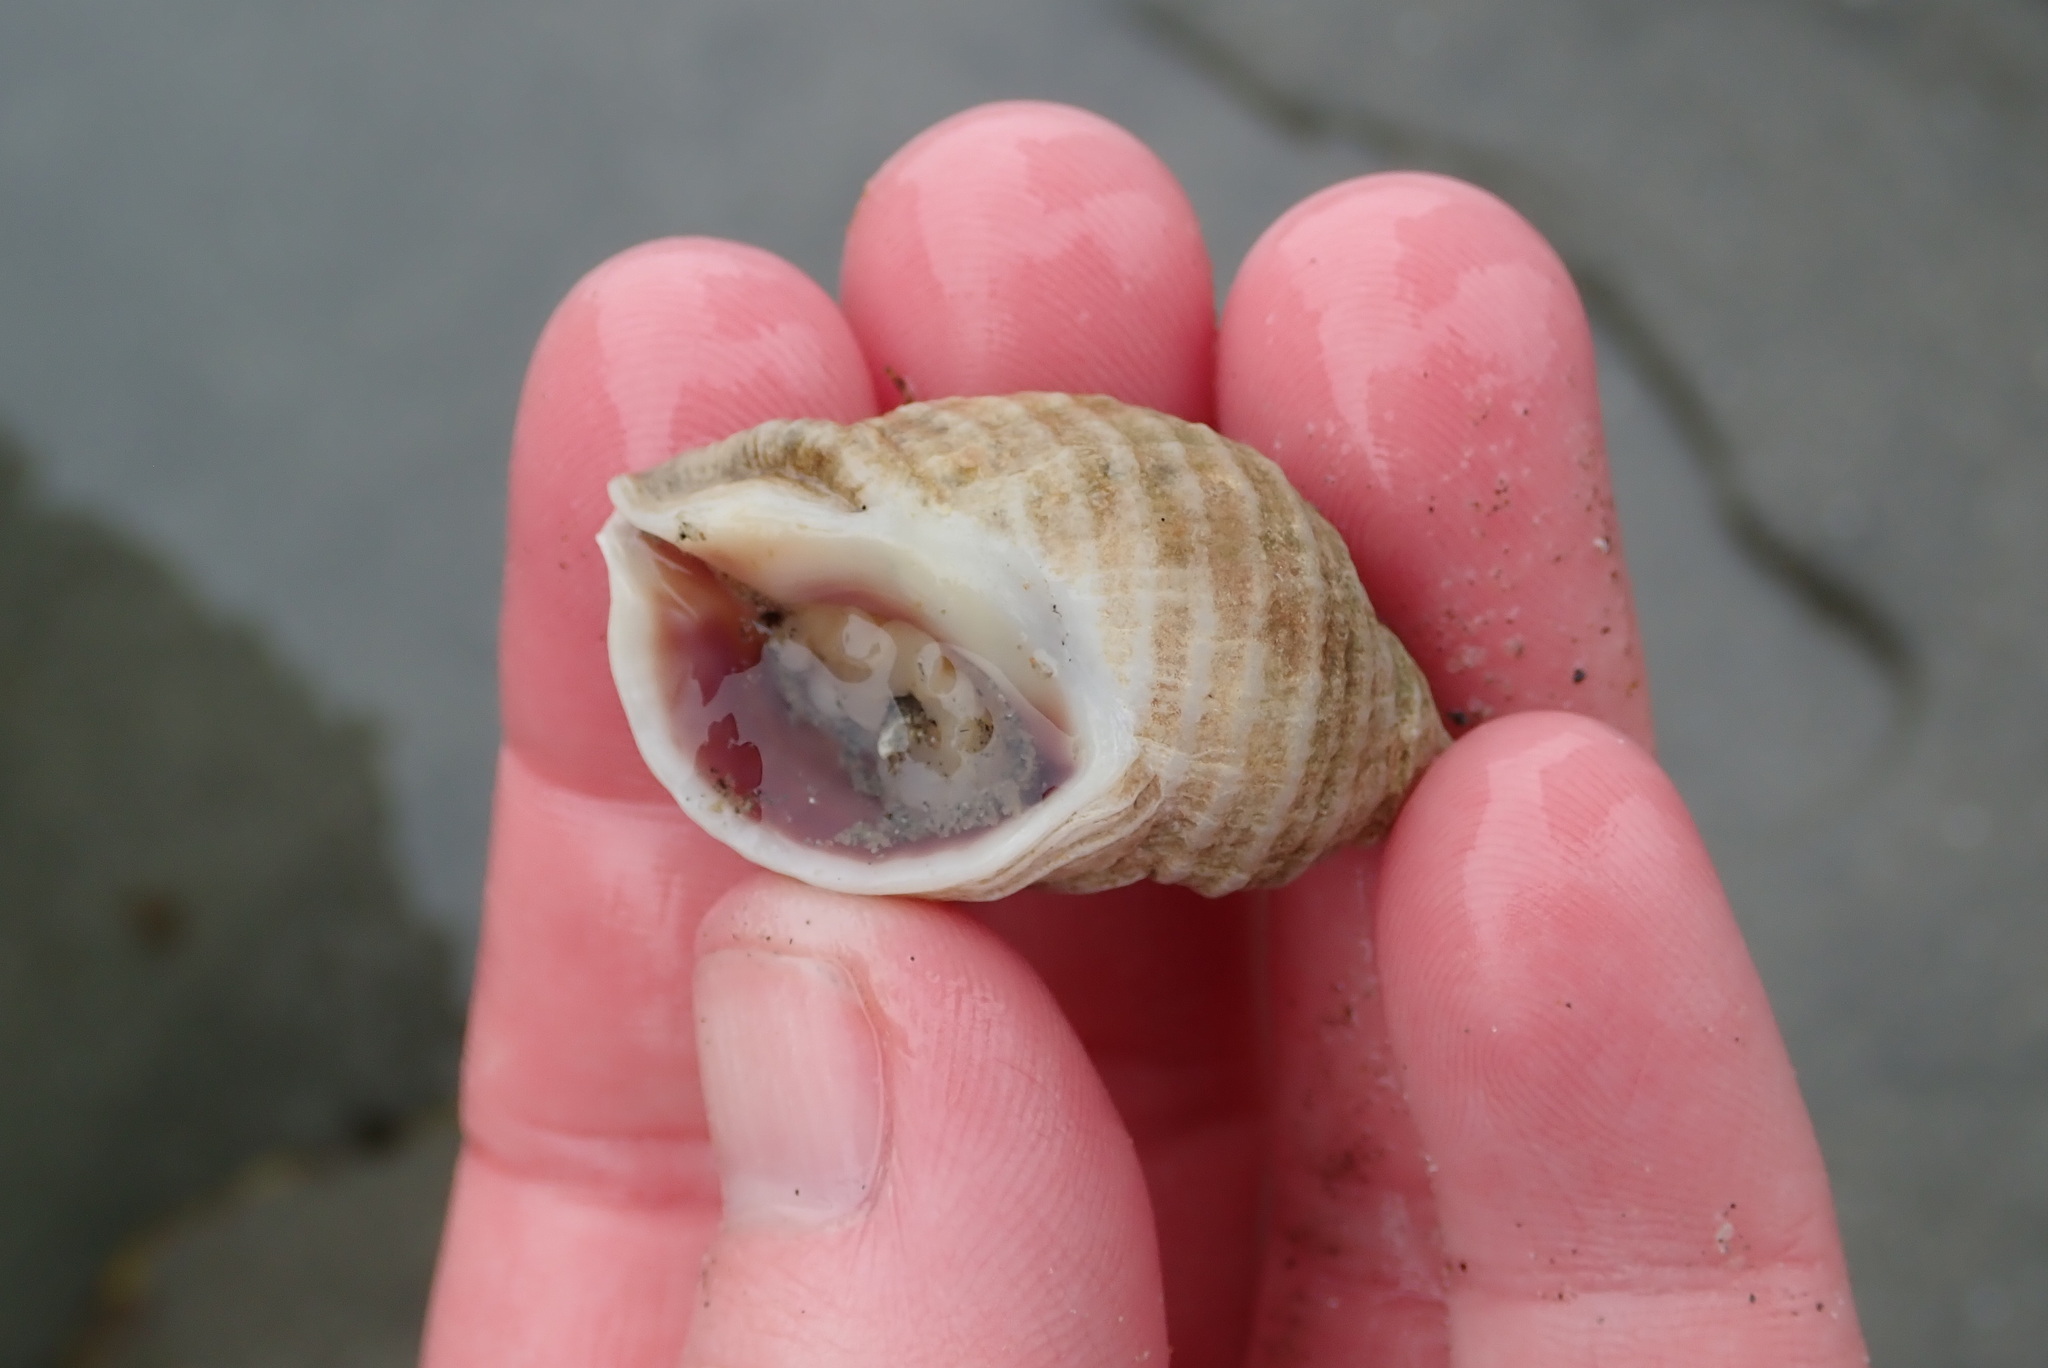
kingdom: Animalia
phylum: Mollusca
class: Gastropoda
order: Neogastropoda
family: Muricidae
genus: Nucella
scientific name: Nucella lapillus
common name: Dog whelk
